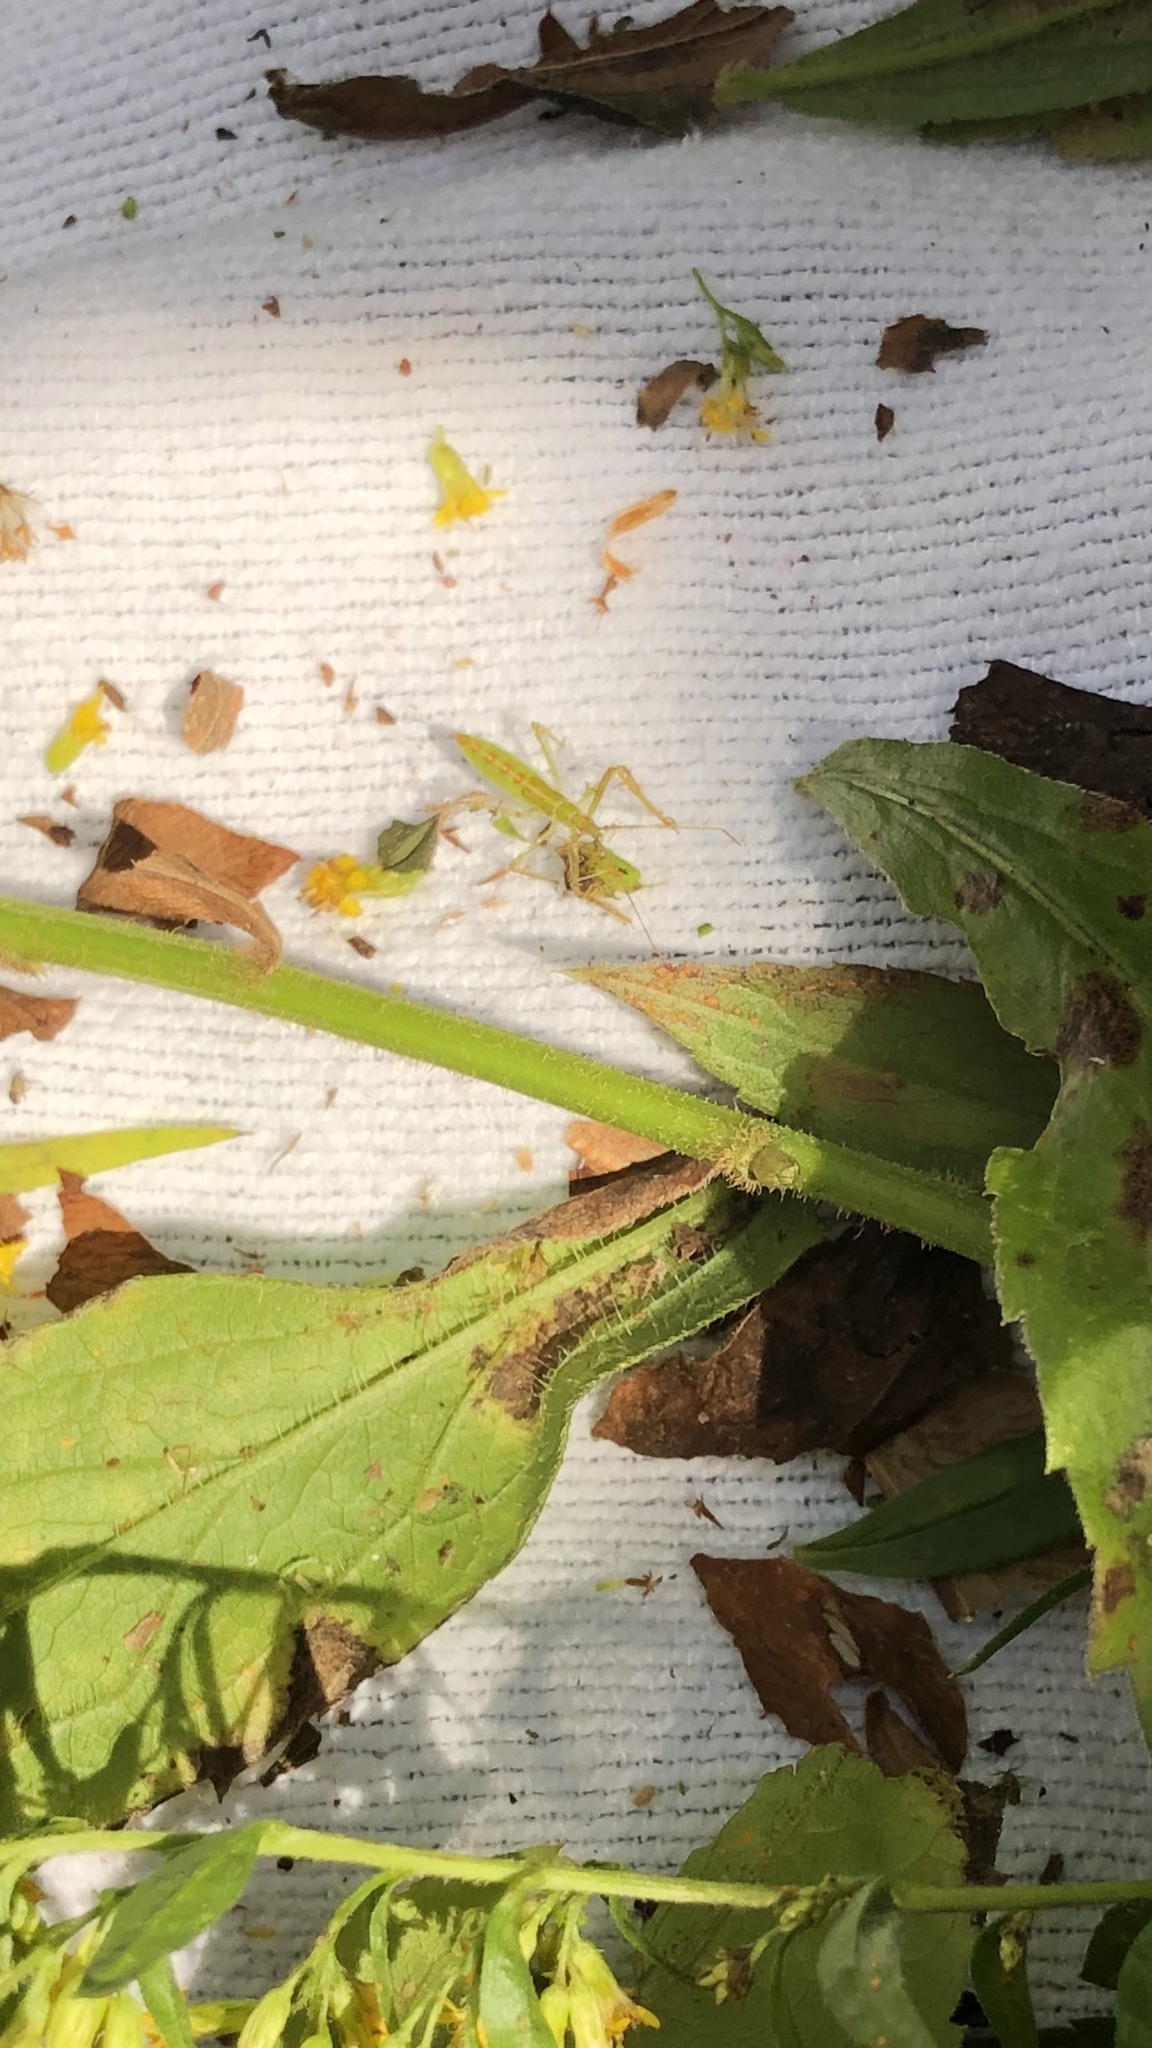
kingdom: Animalia
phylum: Arthropoda
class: Insecta
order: Hemiptera
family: Reduviidae
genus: Zelus
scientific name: Zelus luridus
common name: Pale green assassin bug
